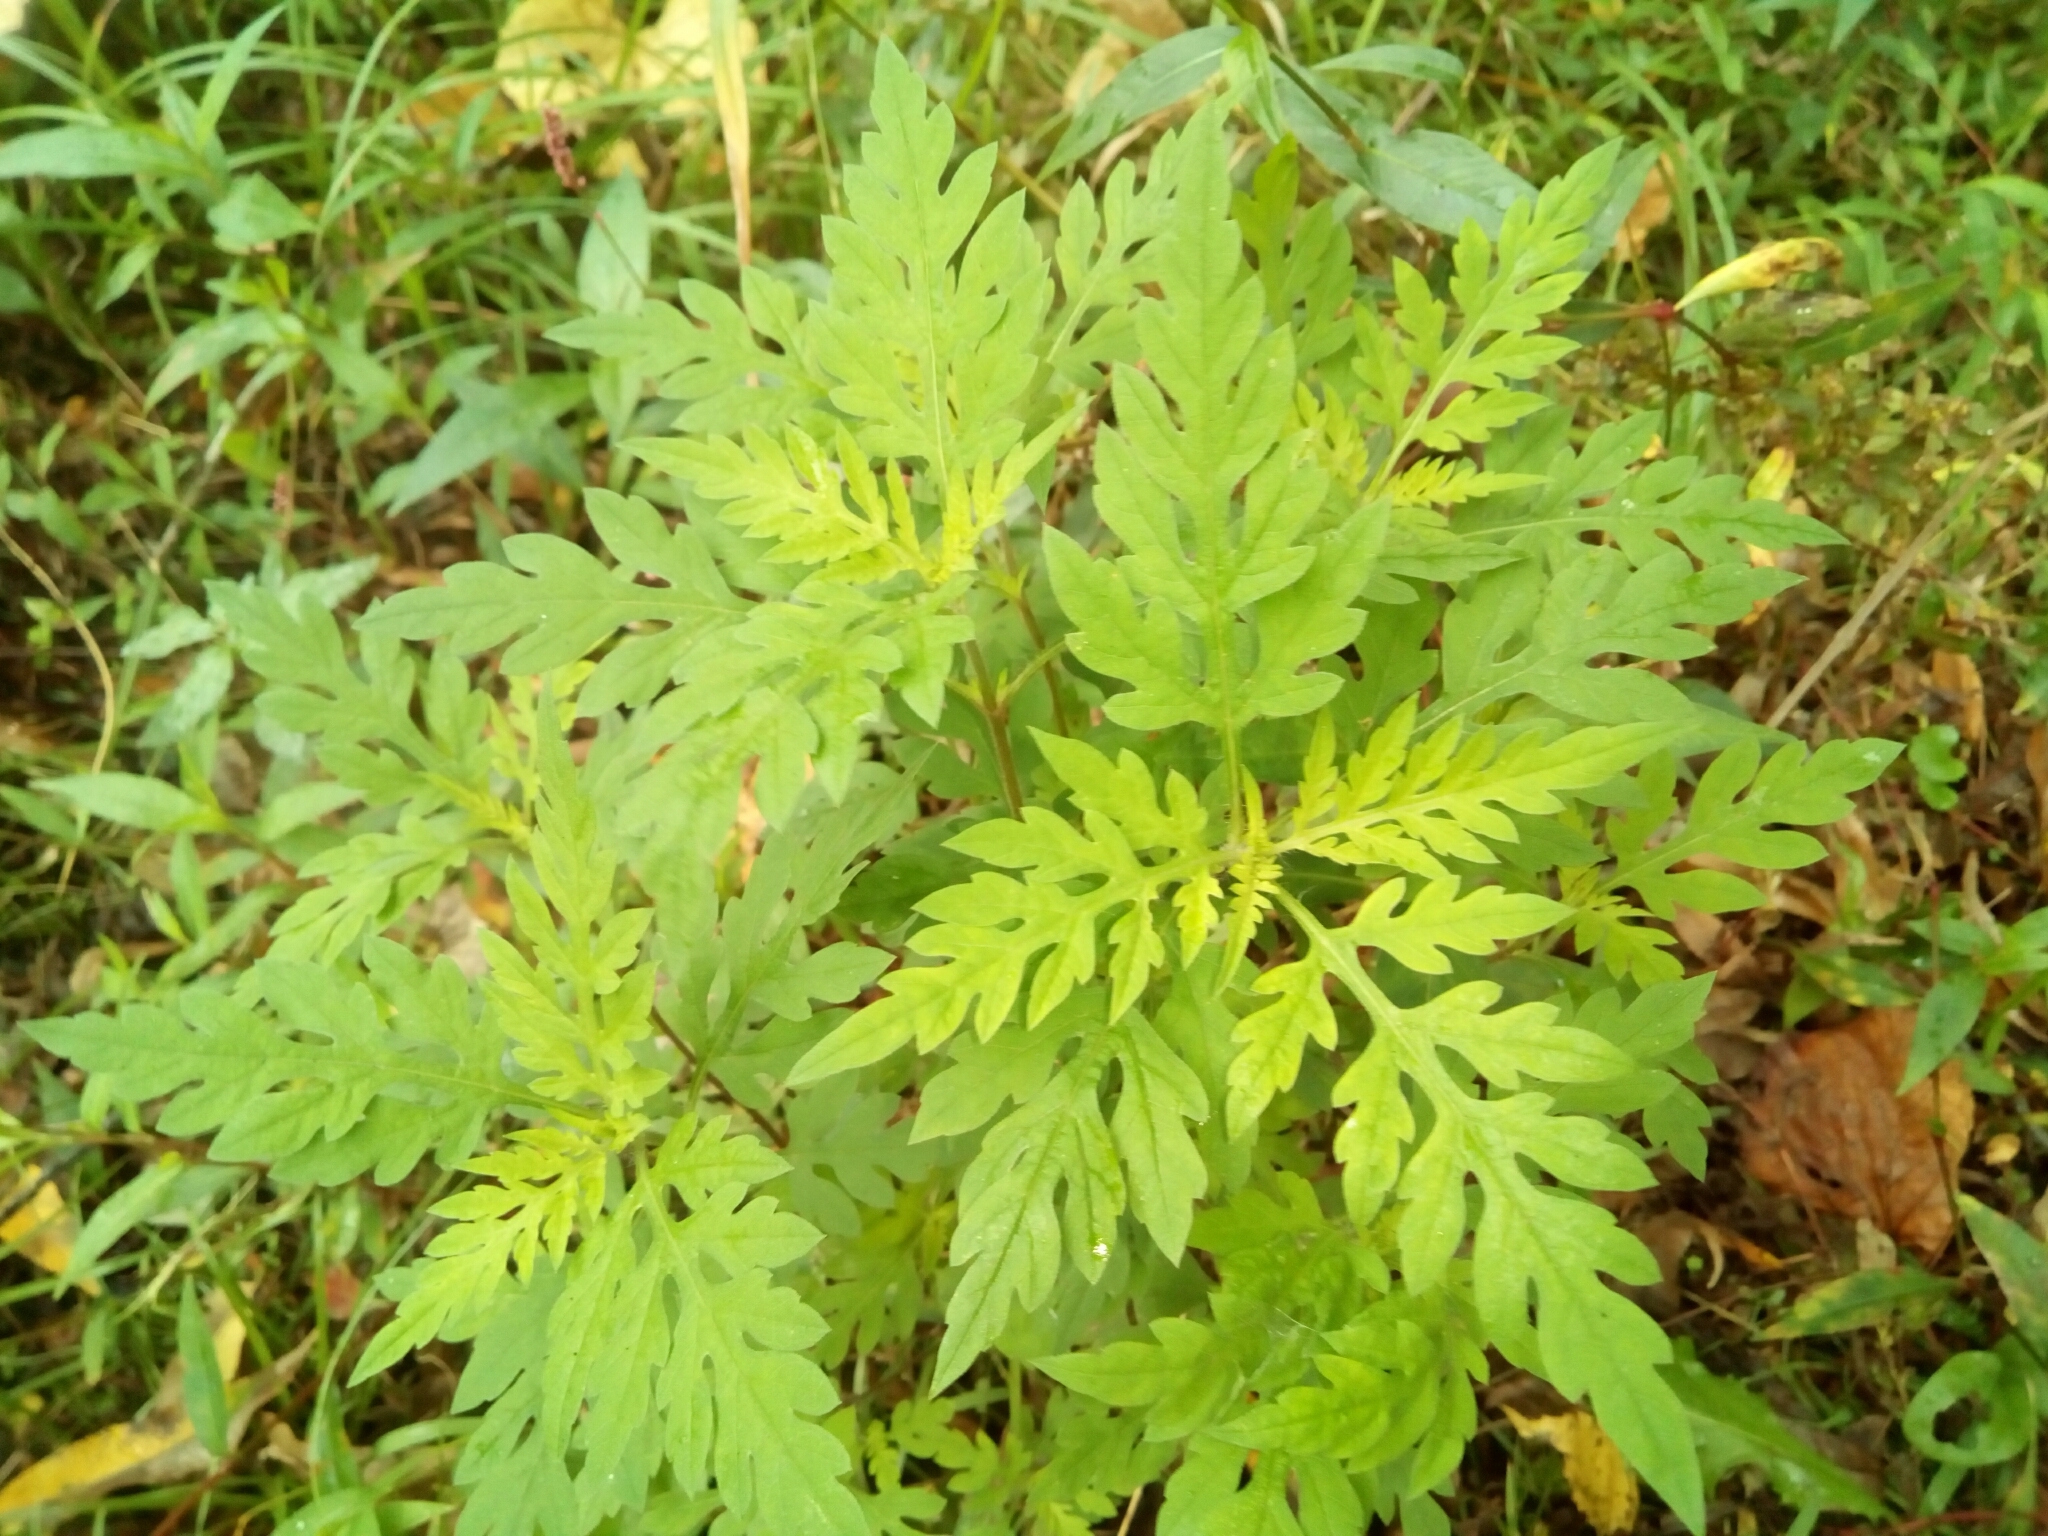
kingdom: Plantae
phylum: Tracheophyta
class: Magnoliopsida
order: Asterales
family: Asteraceae
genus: Ambrosia
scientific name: Ambrosia artemisiifolia
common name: Annual ragweed
